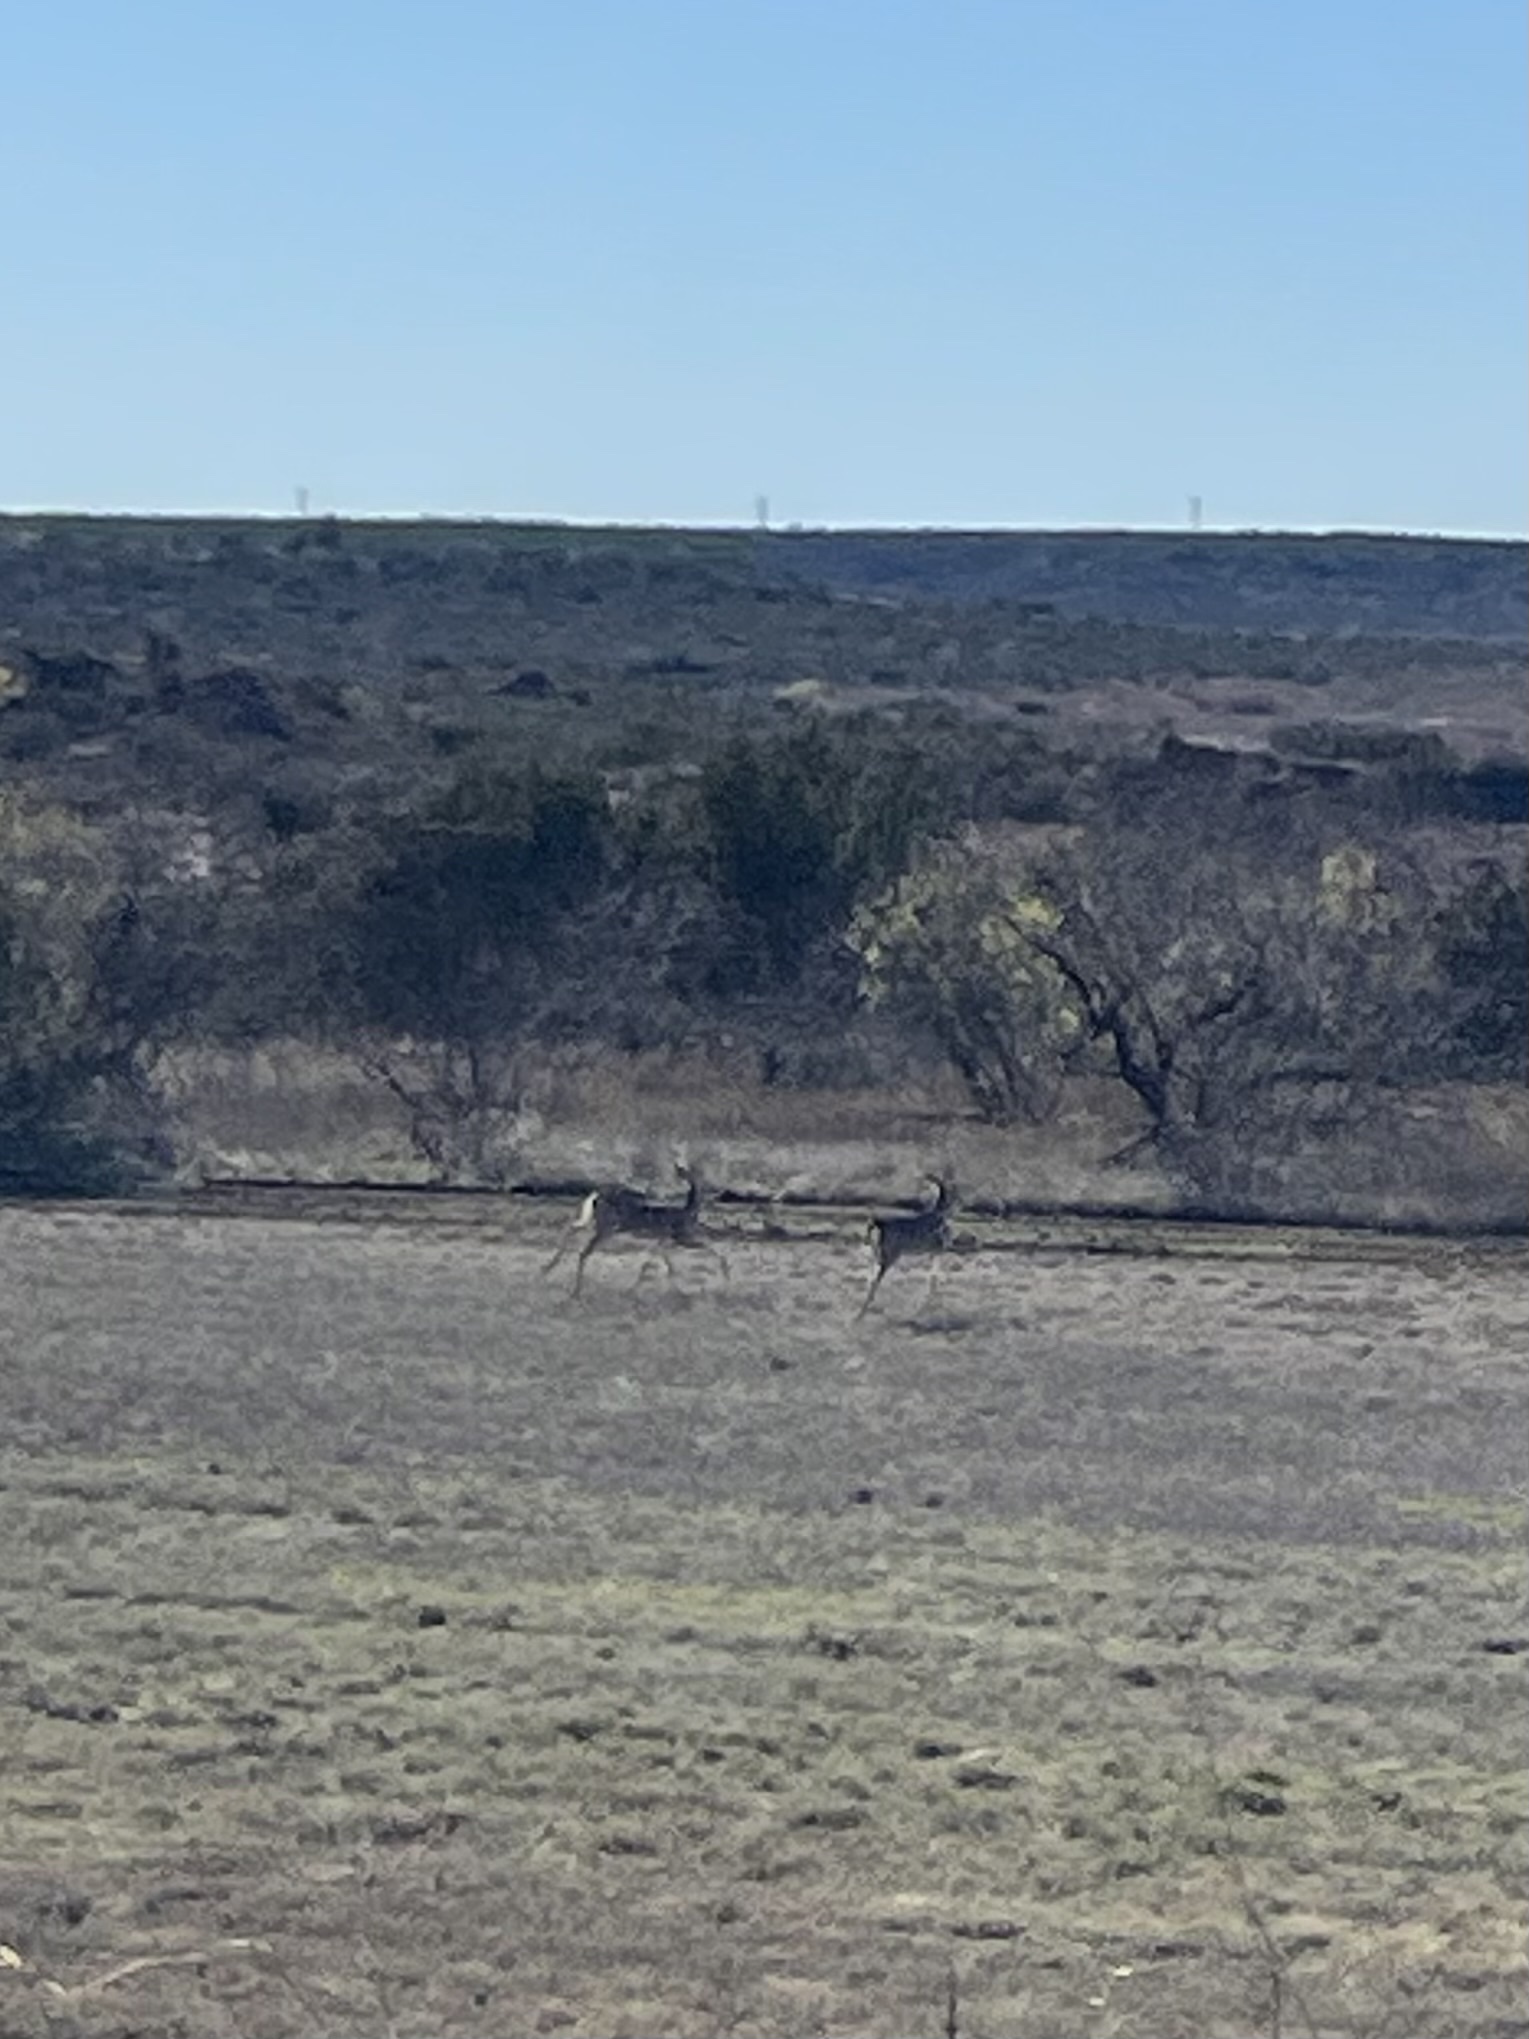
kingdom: Animalia
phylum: Chordata
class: Mammalia
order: Artiodactyla
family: Cervidae
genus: Odocoileus
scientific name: Odocoileus virginianus
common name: White-tailed deer
